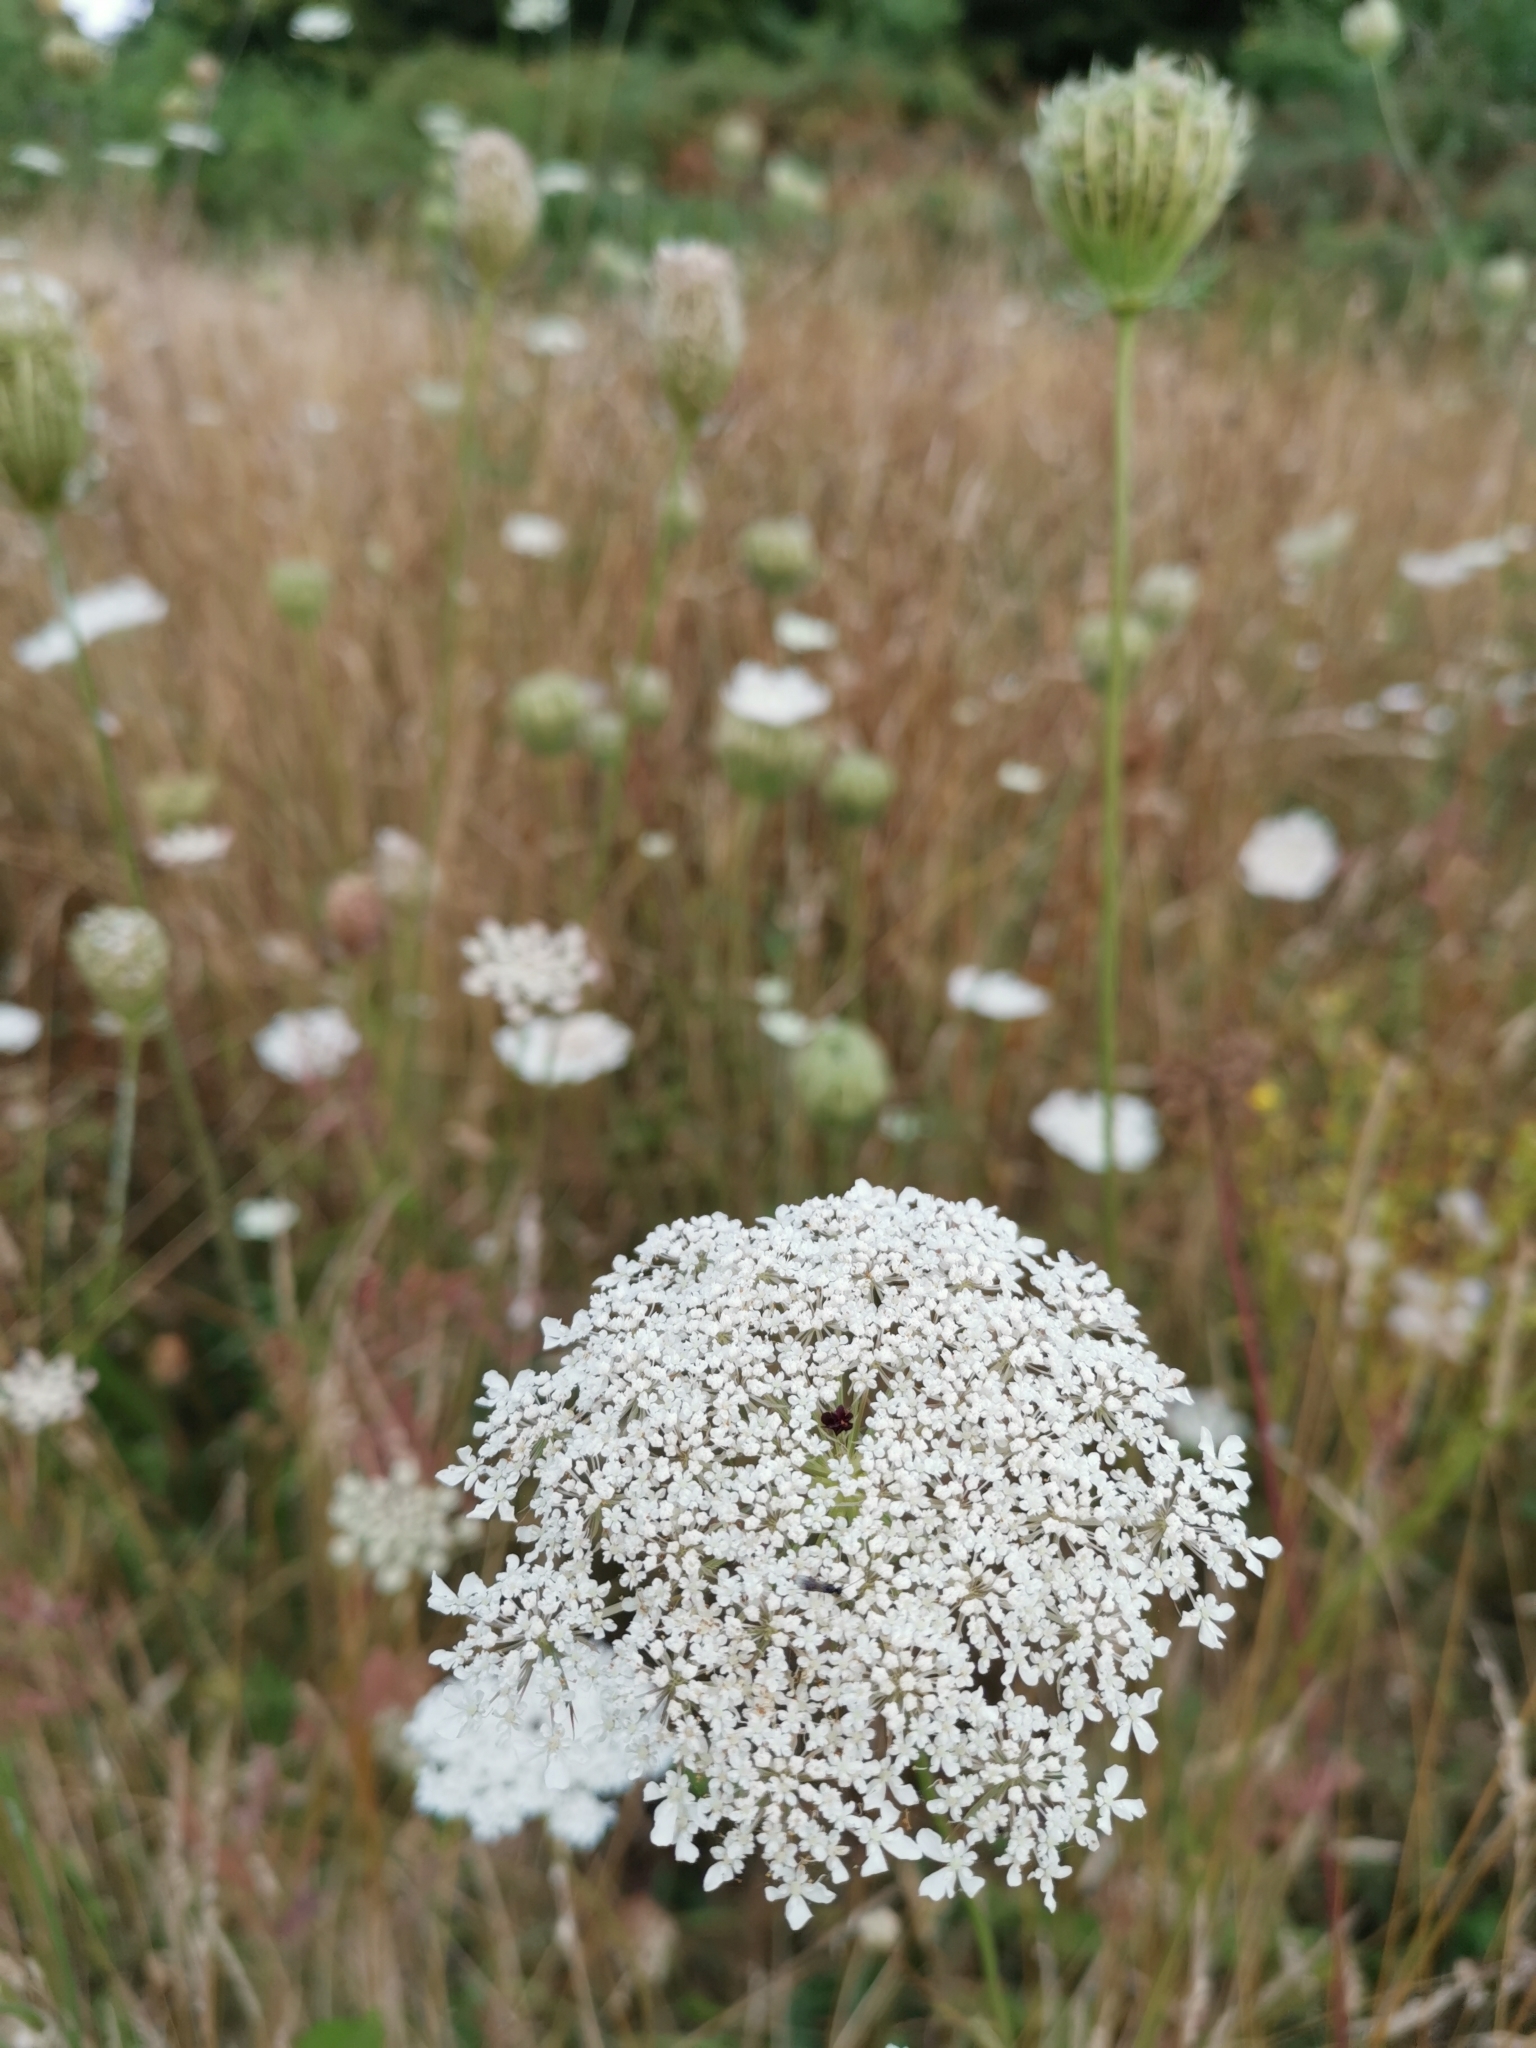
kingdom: Plantae
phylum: Tracheophyta
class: Magnoliopsida
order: Apiales
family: Apiaceae
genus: Daucus
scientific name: Daucus carota
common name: Wild carrot
